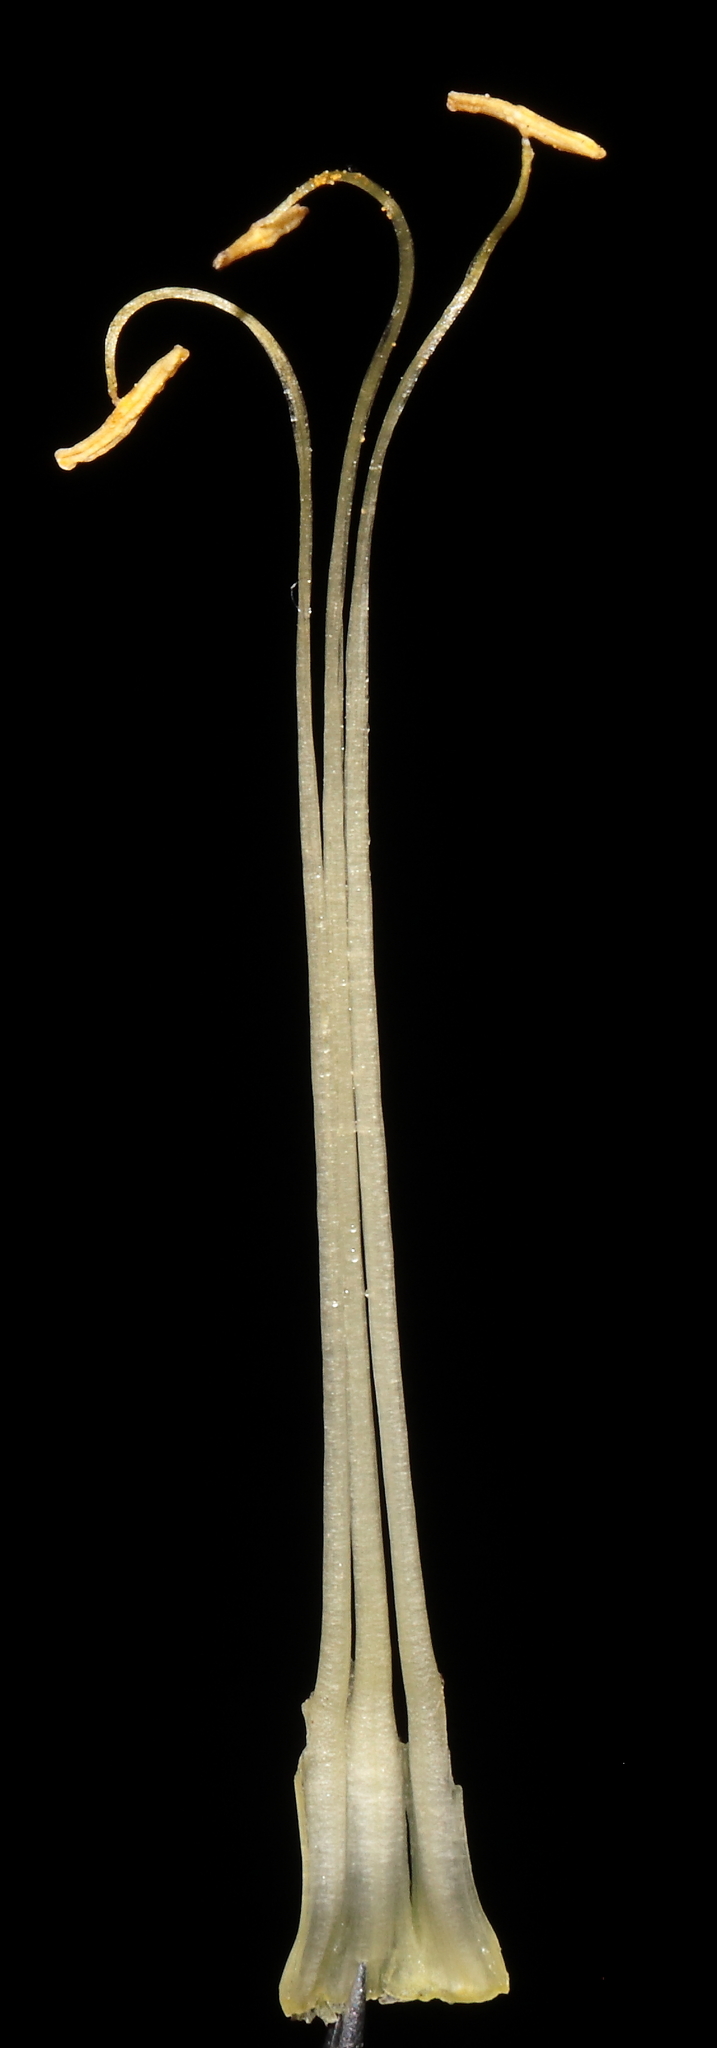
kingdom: Plantae
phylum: Tracheophyta
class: Magnoliopsida
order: Ericales
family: Polemoniaceae
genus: Cantua
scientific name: Cantua quercifolia
